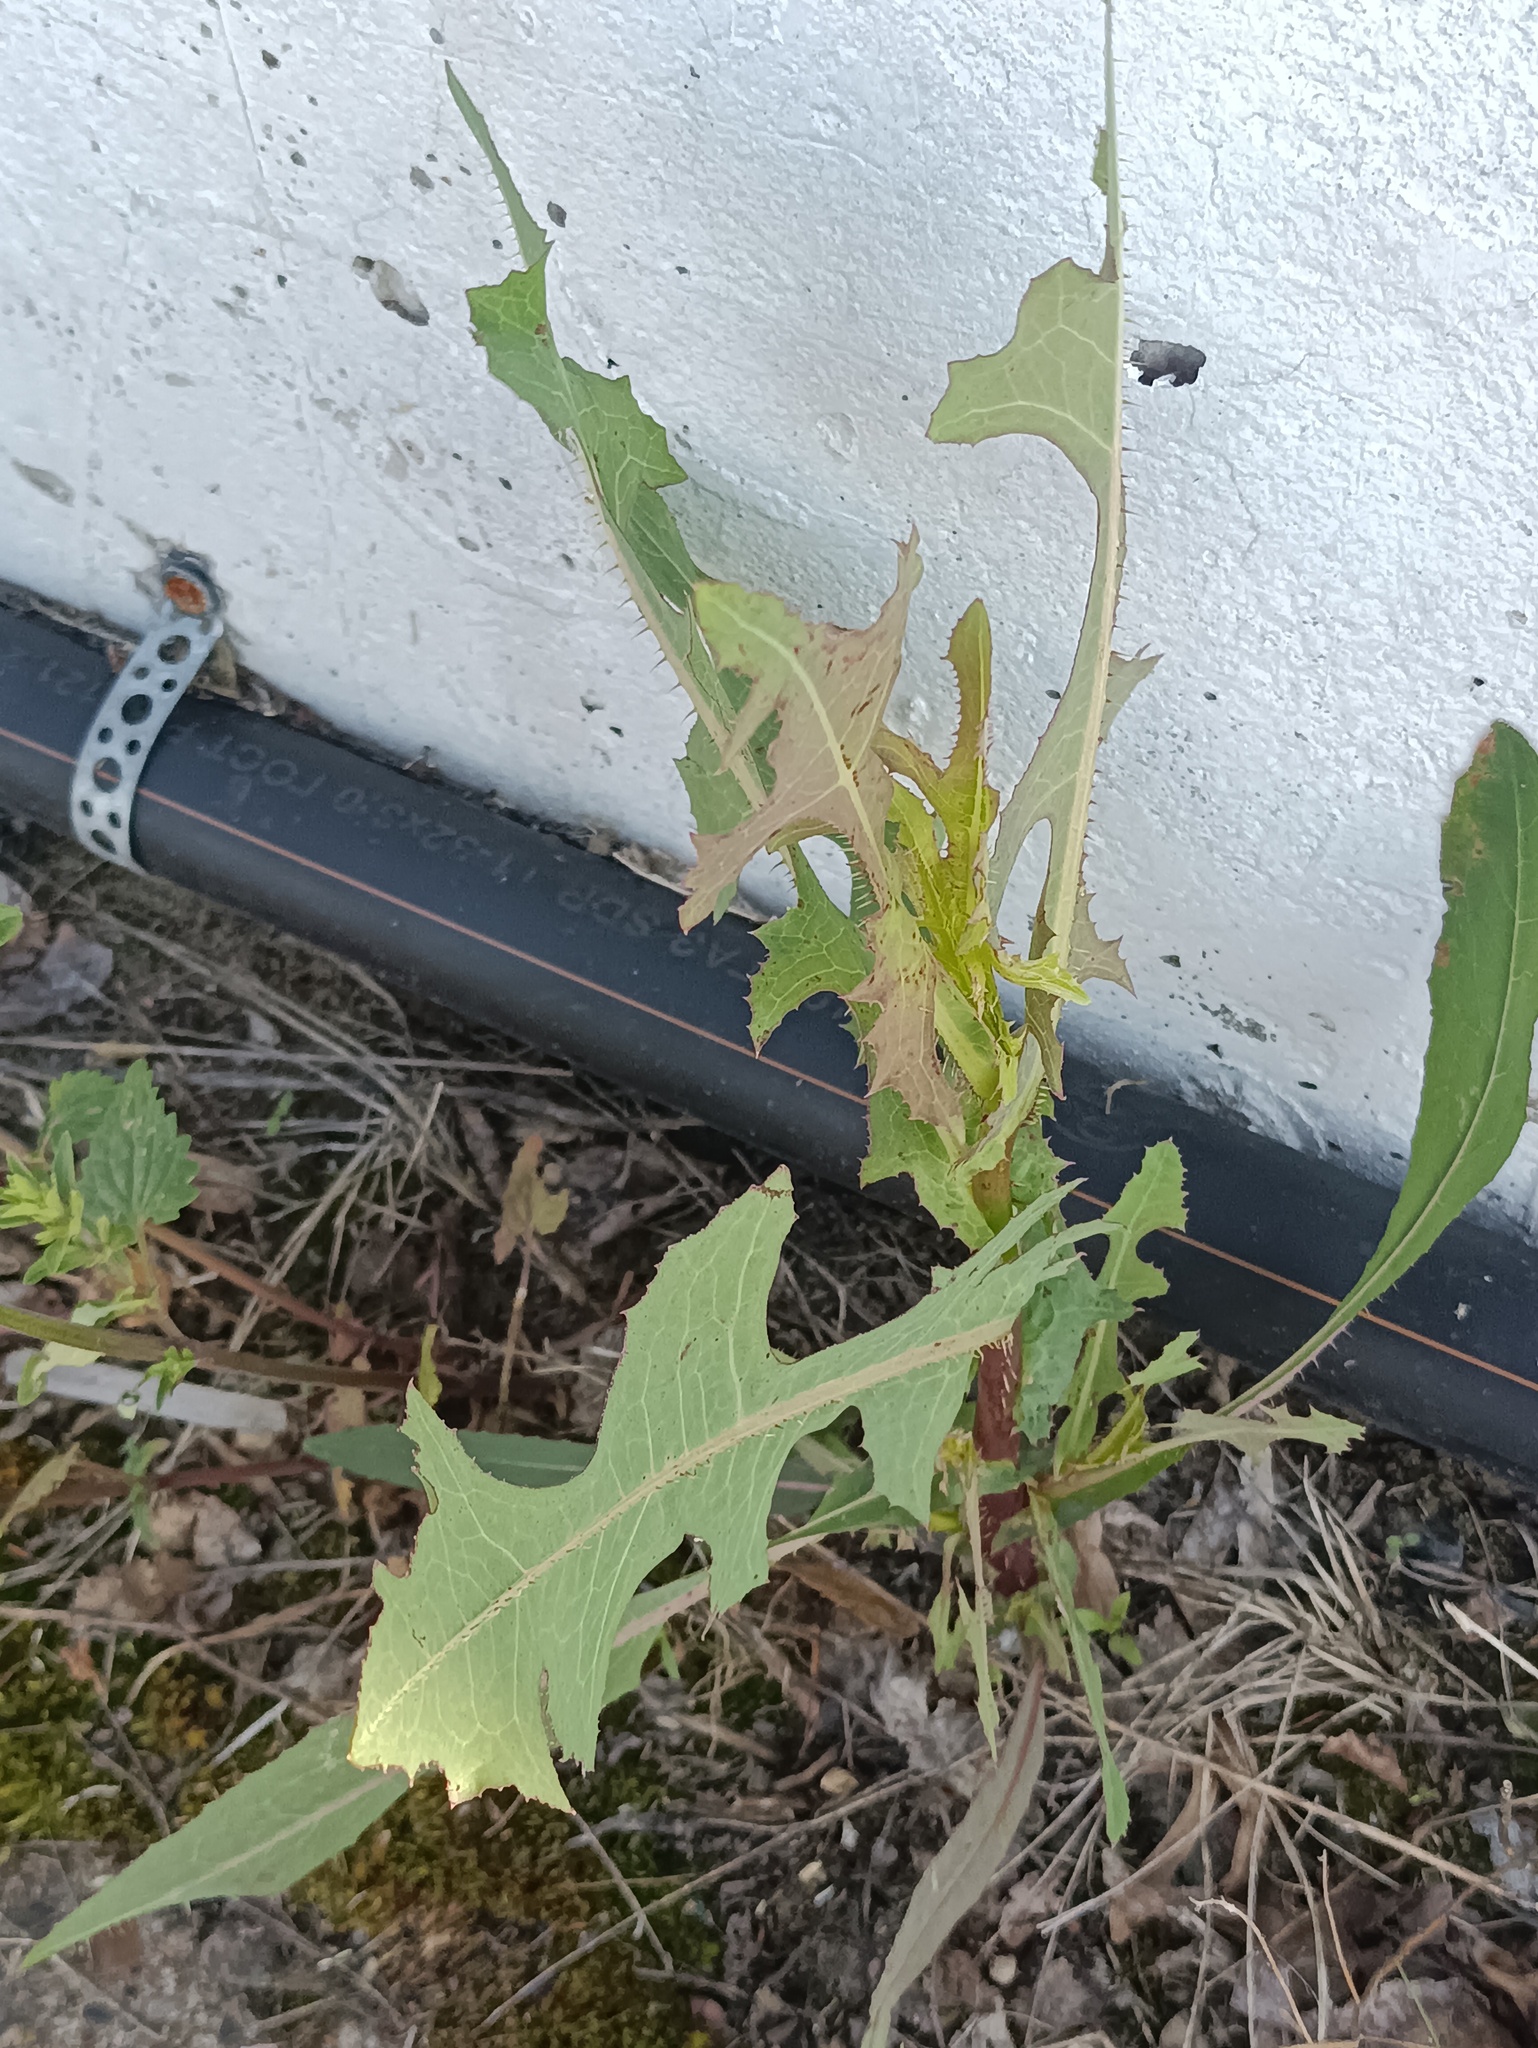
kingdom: Plantae
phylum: Tracheophyta
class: Magnoliopsida
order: Asterales
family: Asteraceae
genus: Lactuca
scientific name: Lactuca serriola
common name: Prickly lettuce
